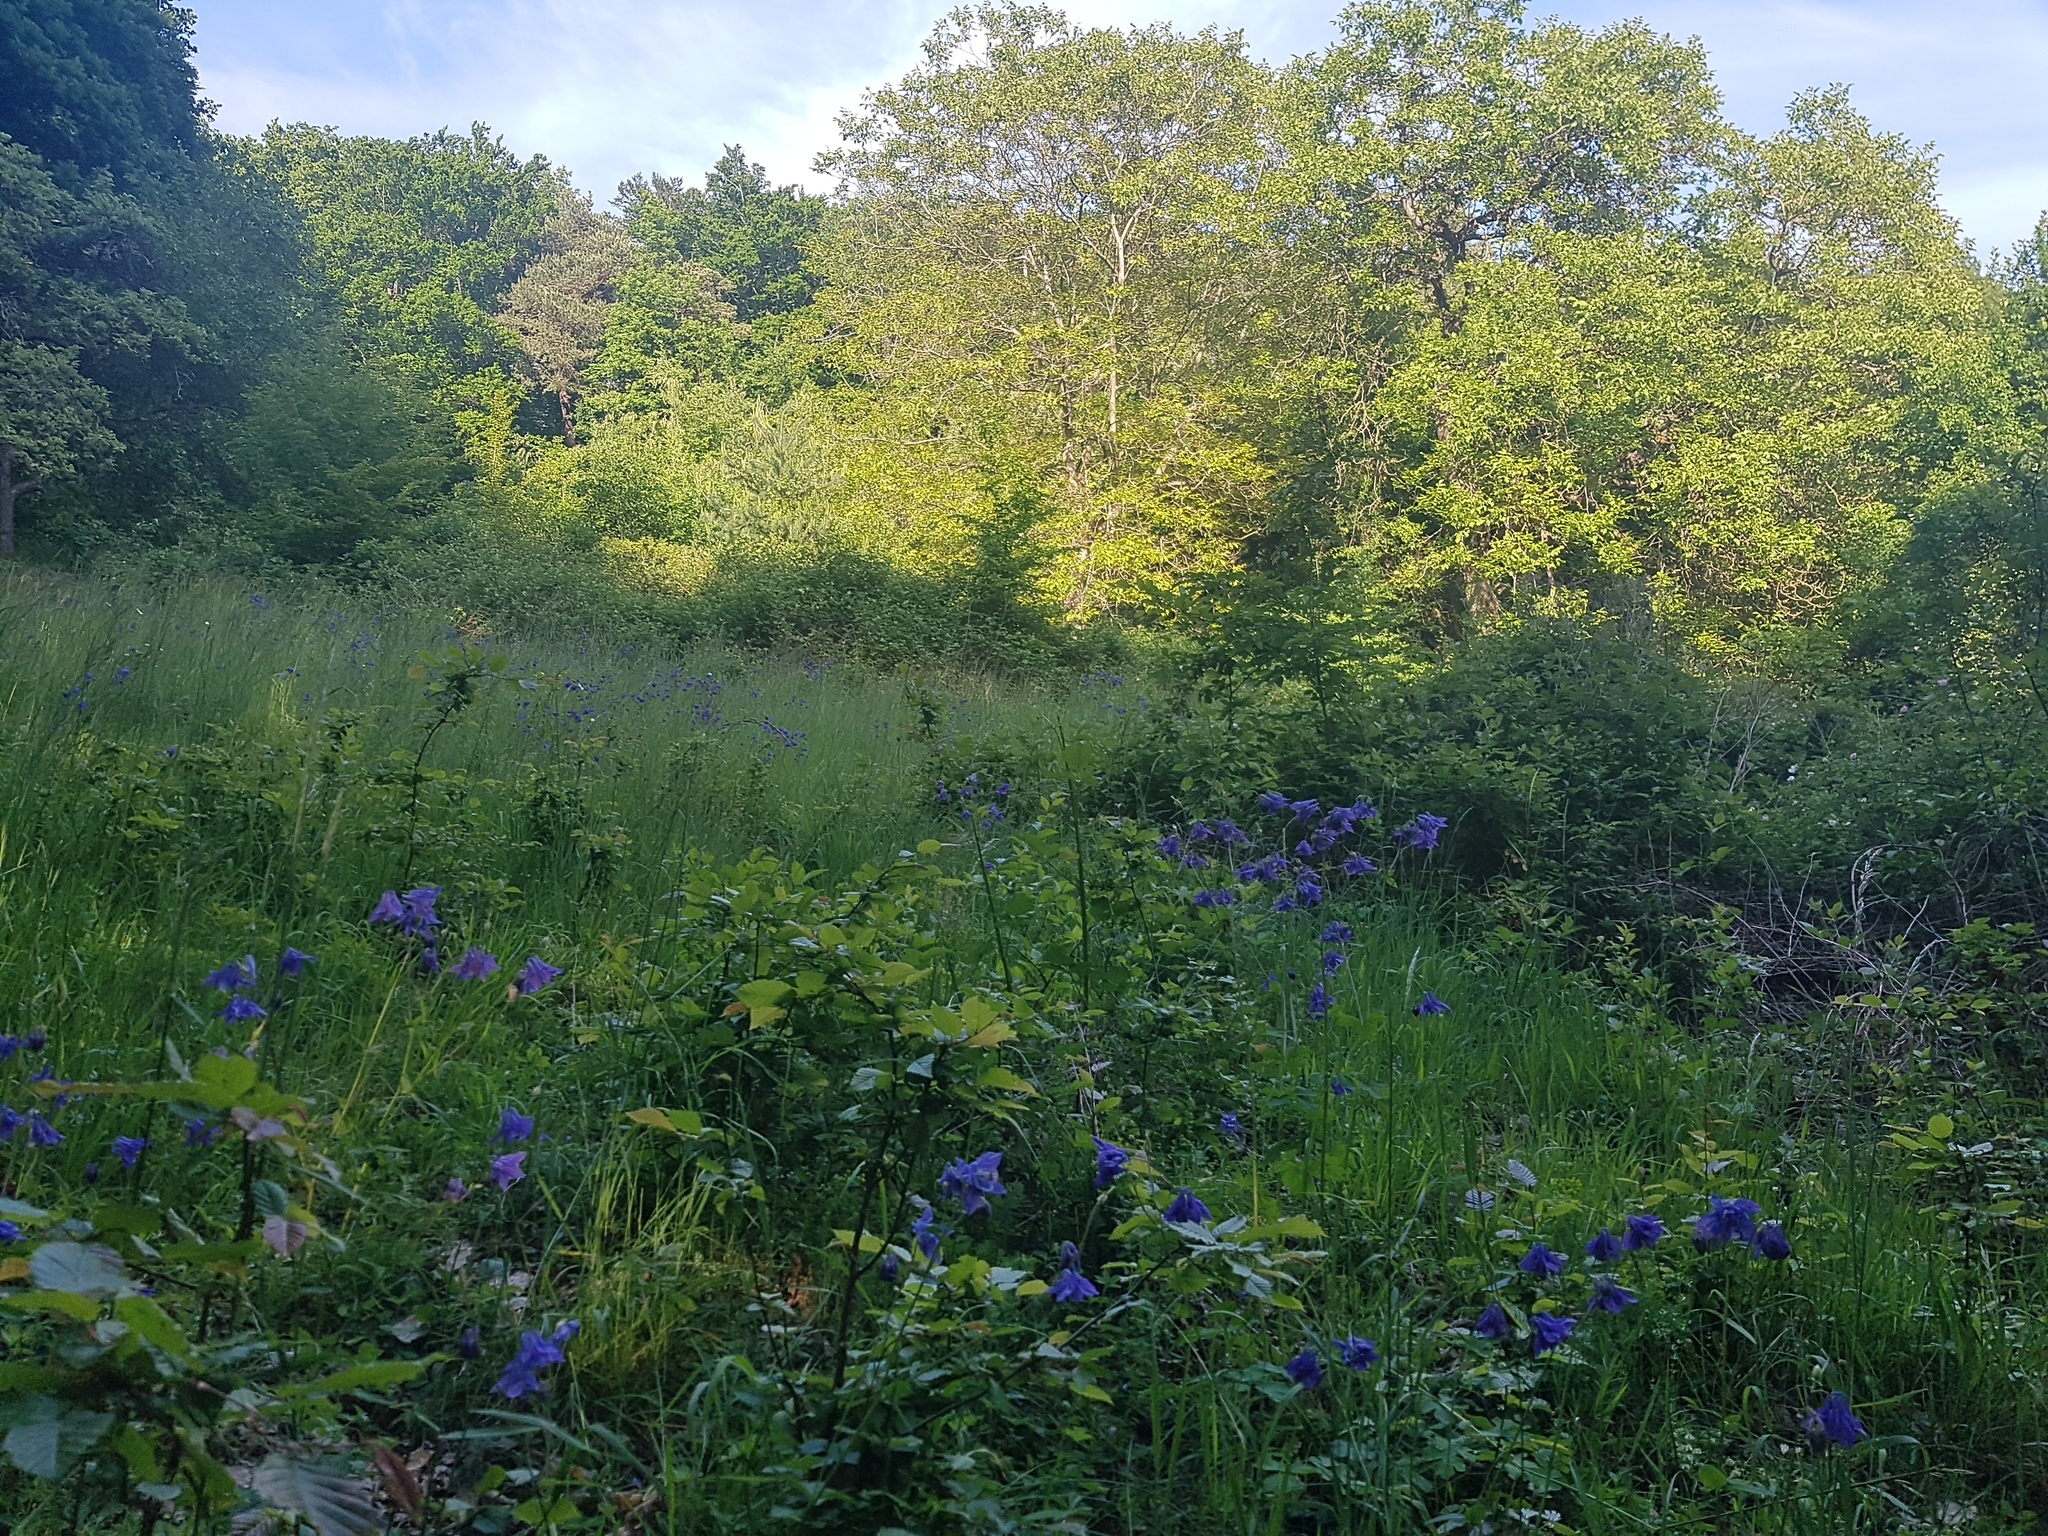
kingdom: Plantae
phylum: Tracheophyta
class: Magnoliopsida
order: Ranunculales
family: Ranunculaceae
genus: Aquilegia
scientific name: Aquilegia vulgaris
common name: Columbine
